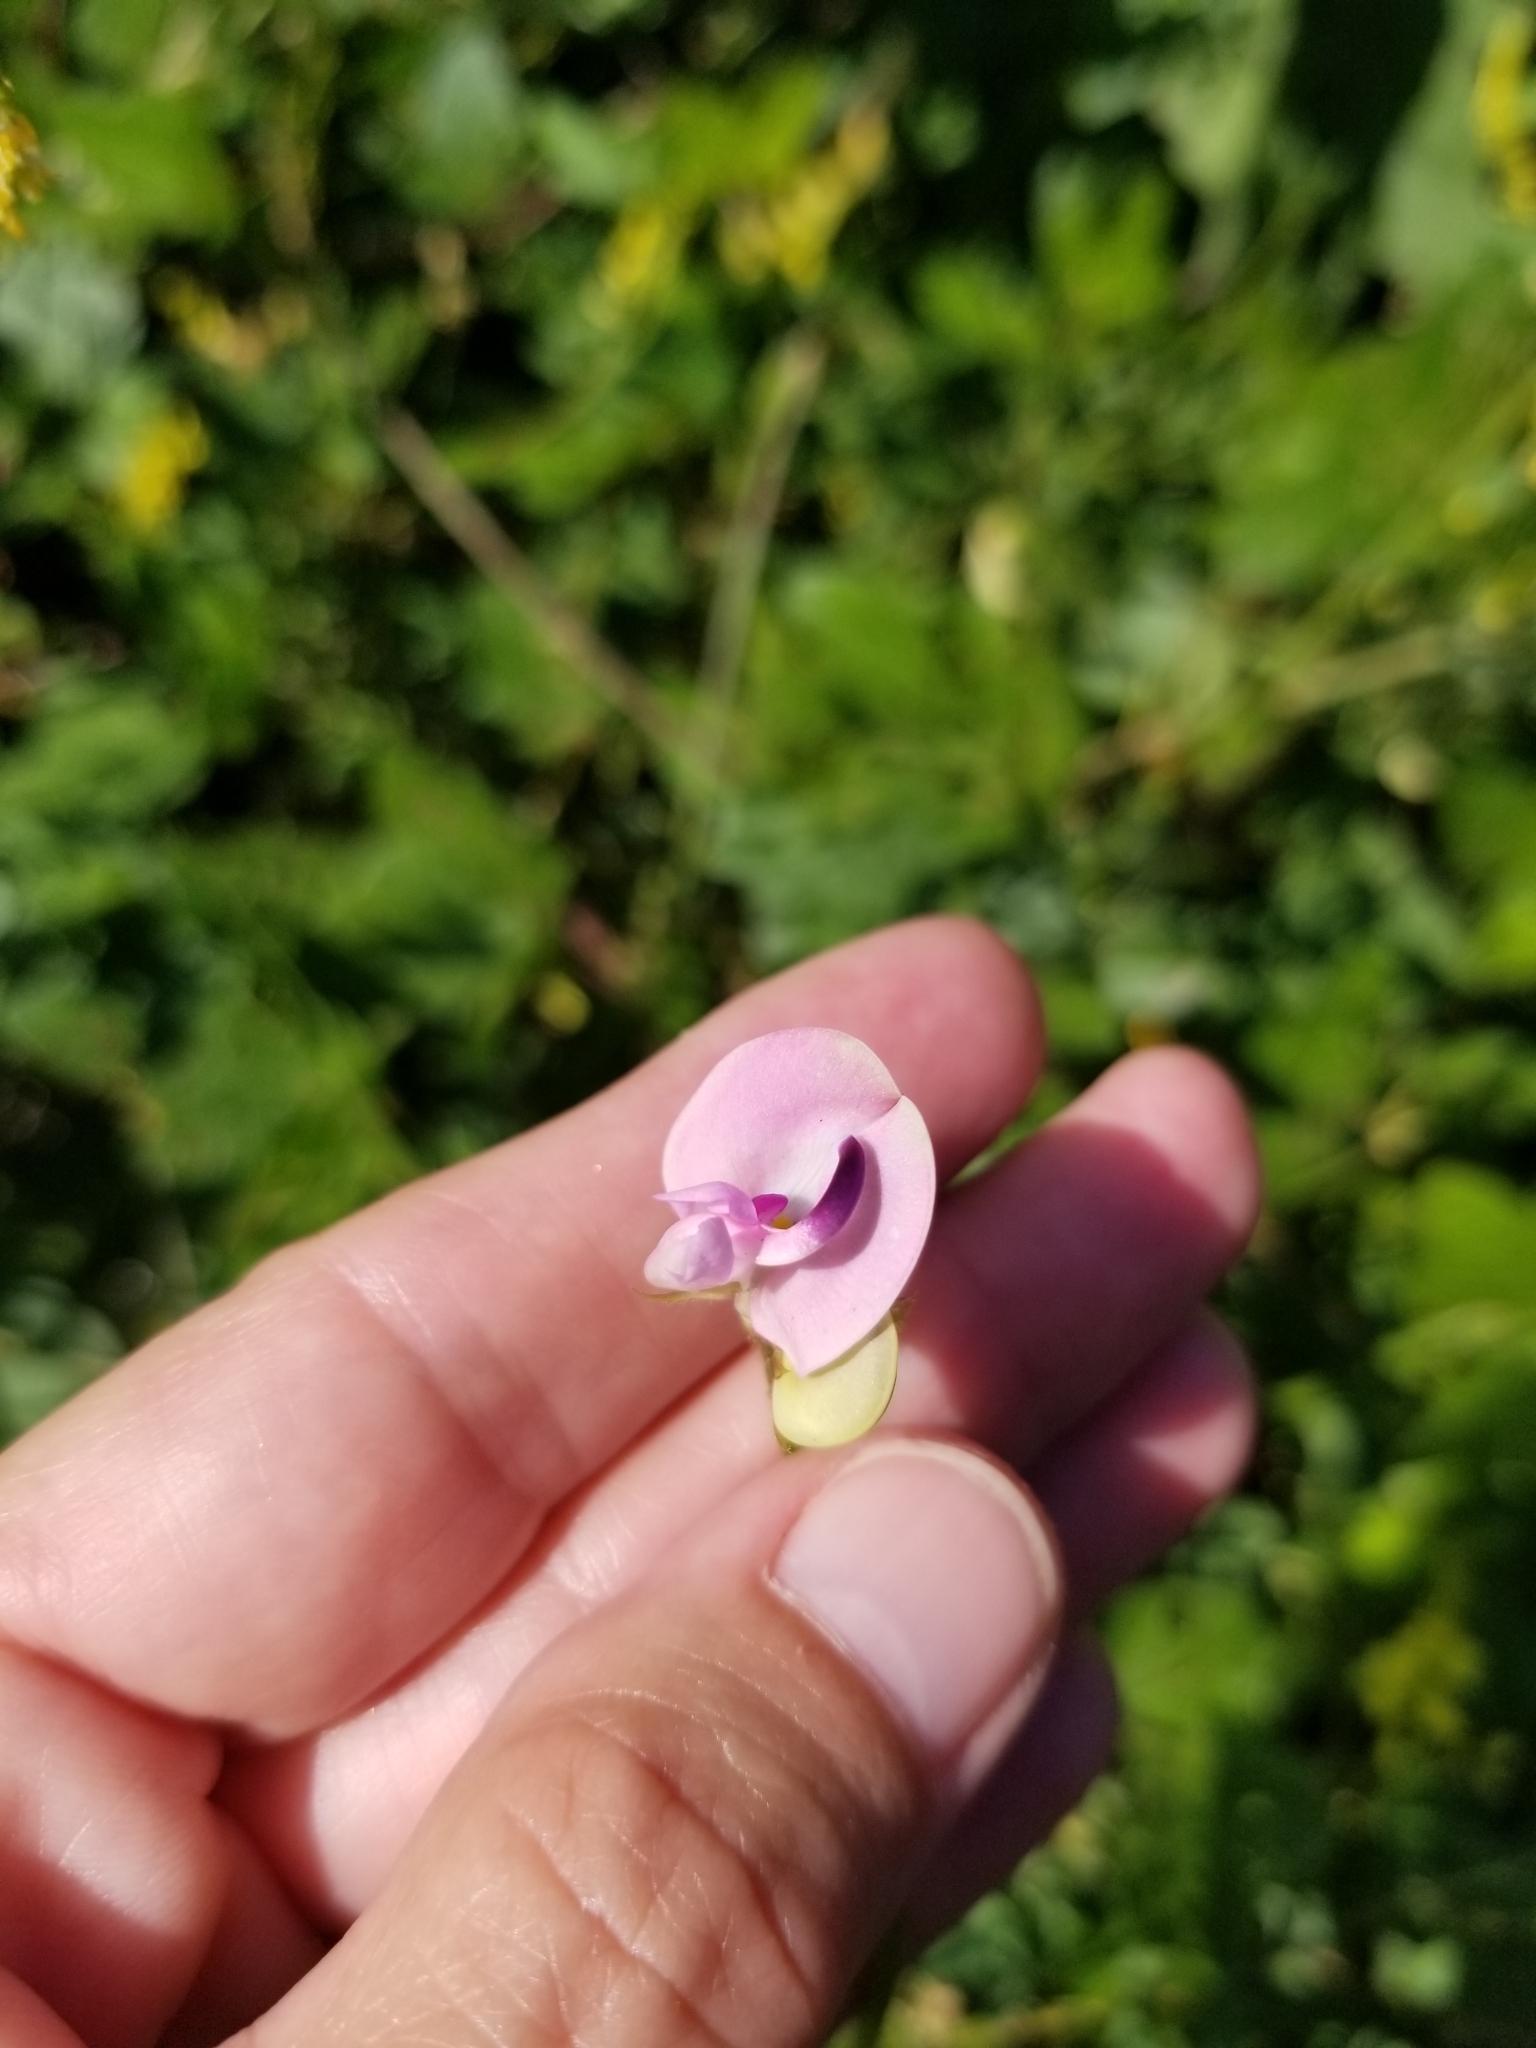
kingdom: Plantae
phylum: Tracheophyta
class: Magnoliopsida
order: Fabales
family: Fabaceae
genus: Strophostyles
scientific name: Strophostyles helvola
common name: Trailing wild bean
